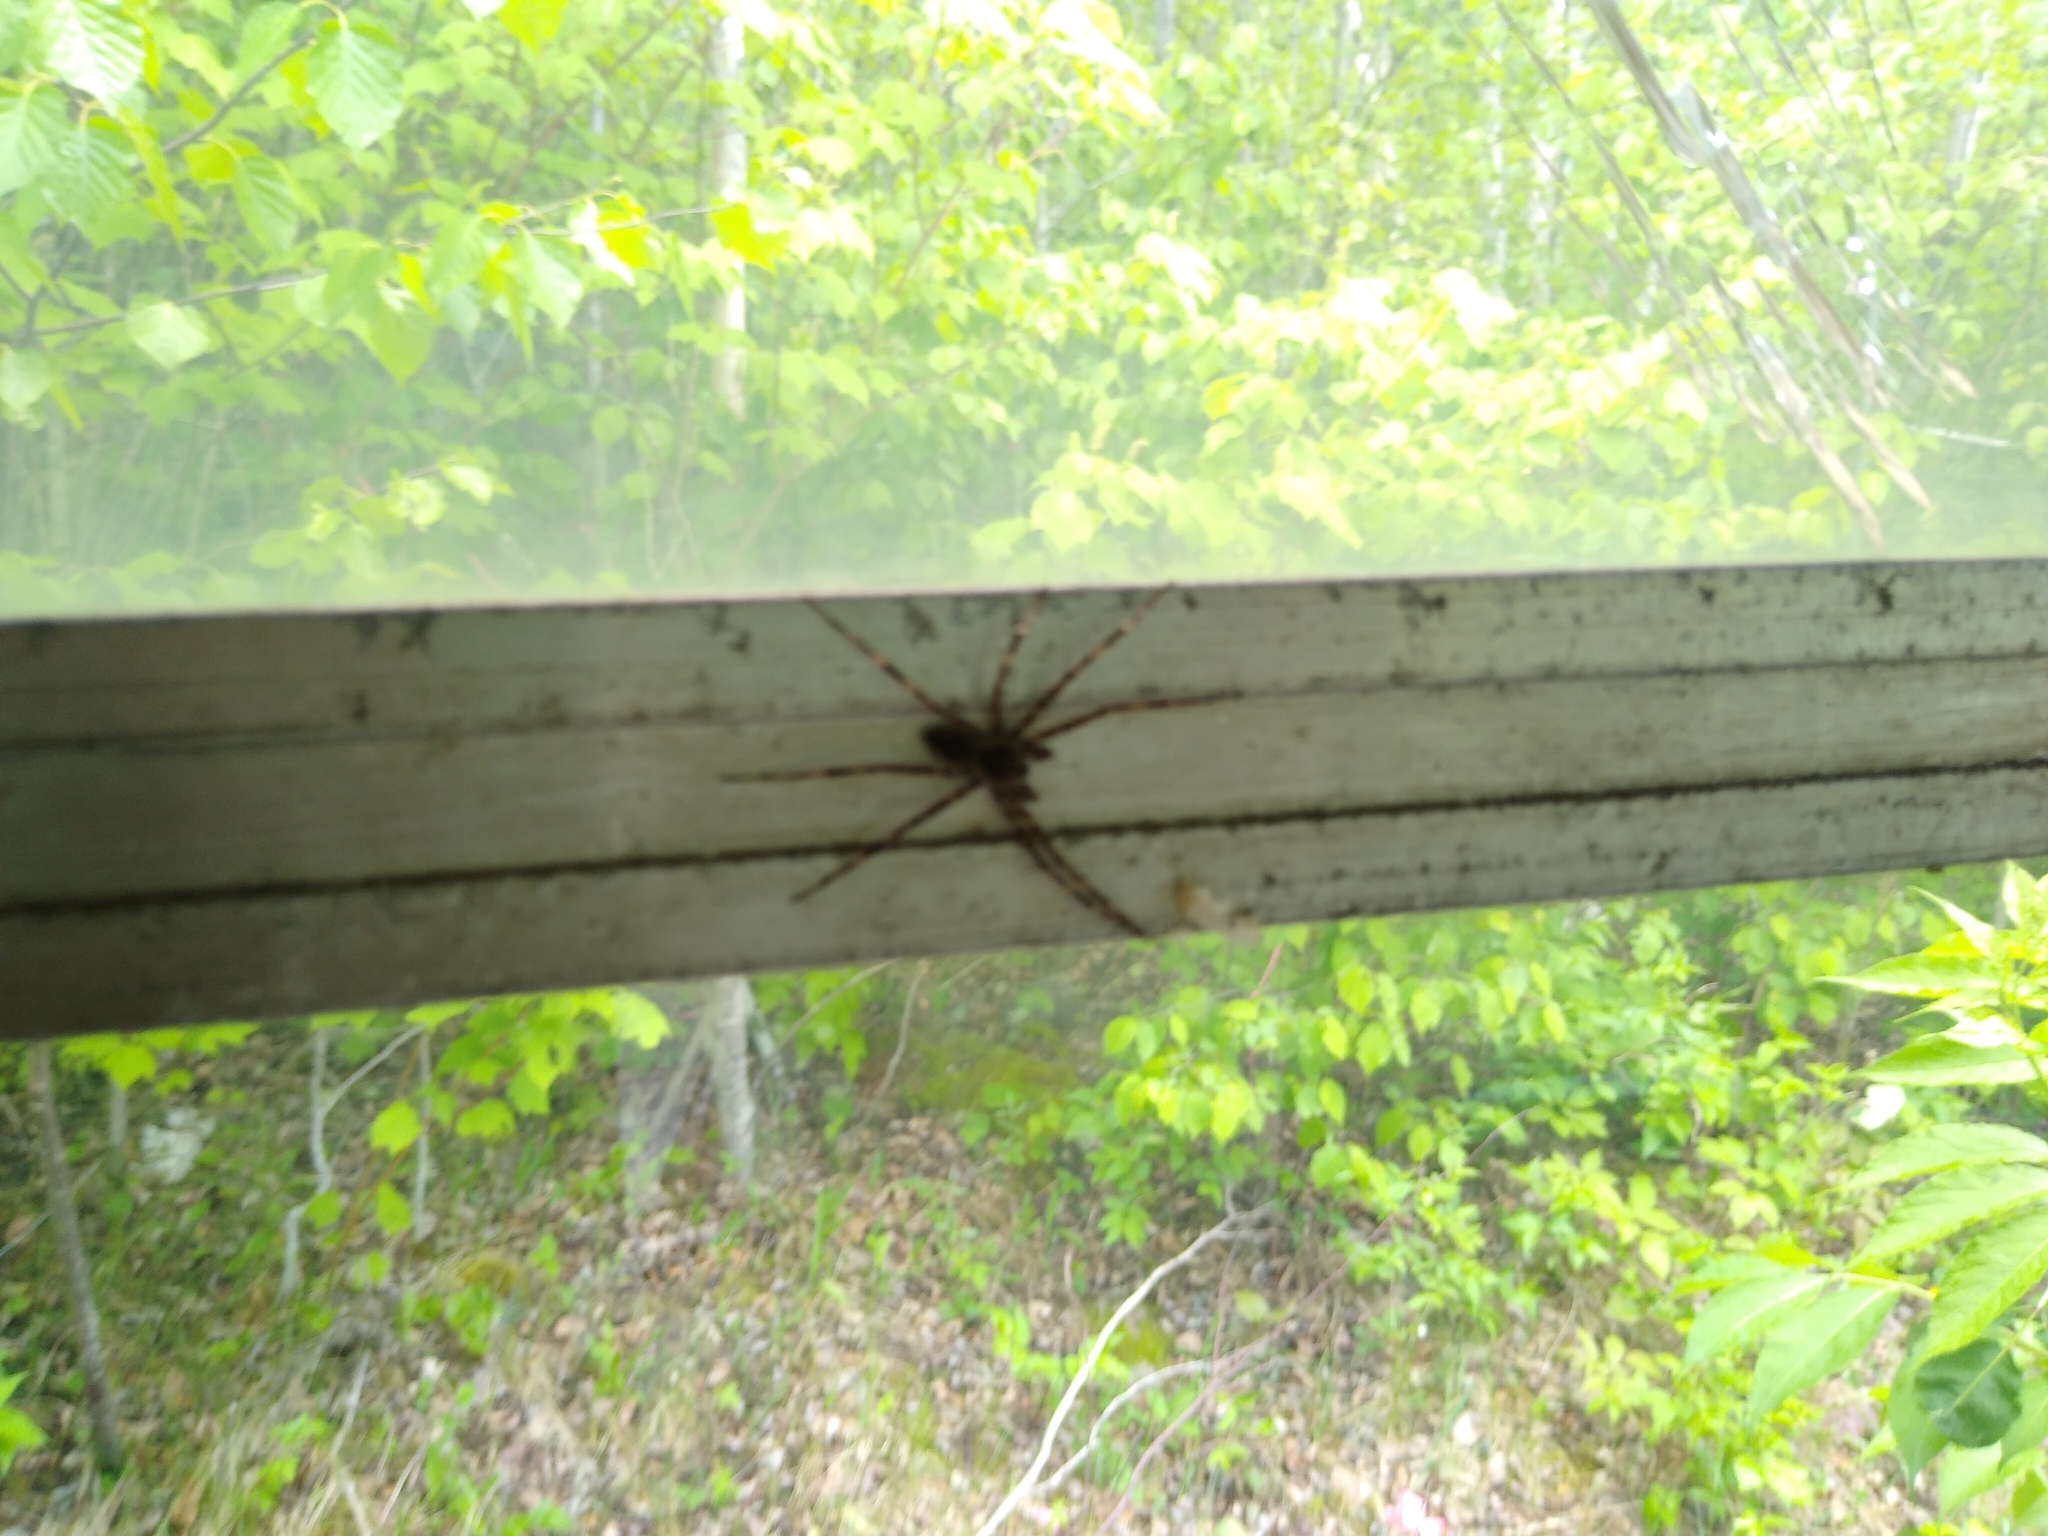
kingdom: Animalia
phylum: Arthropoda
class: Arachnida
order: Araneae
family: Pisauridae
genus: Dolomedes
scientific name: Dolomedes tenebrosus
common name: Dark fishing spider
